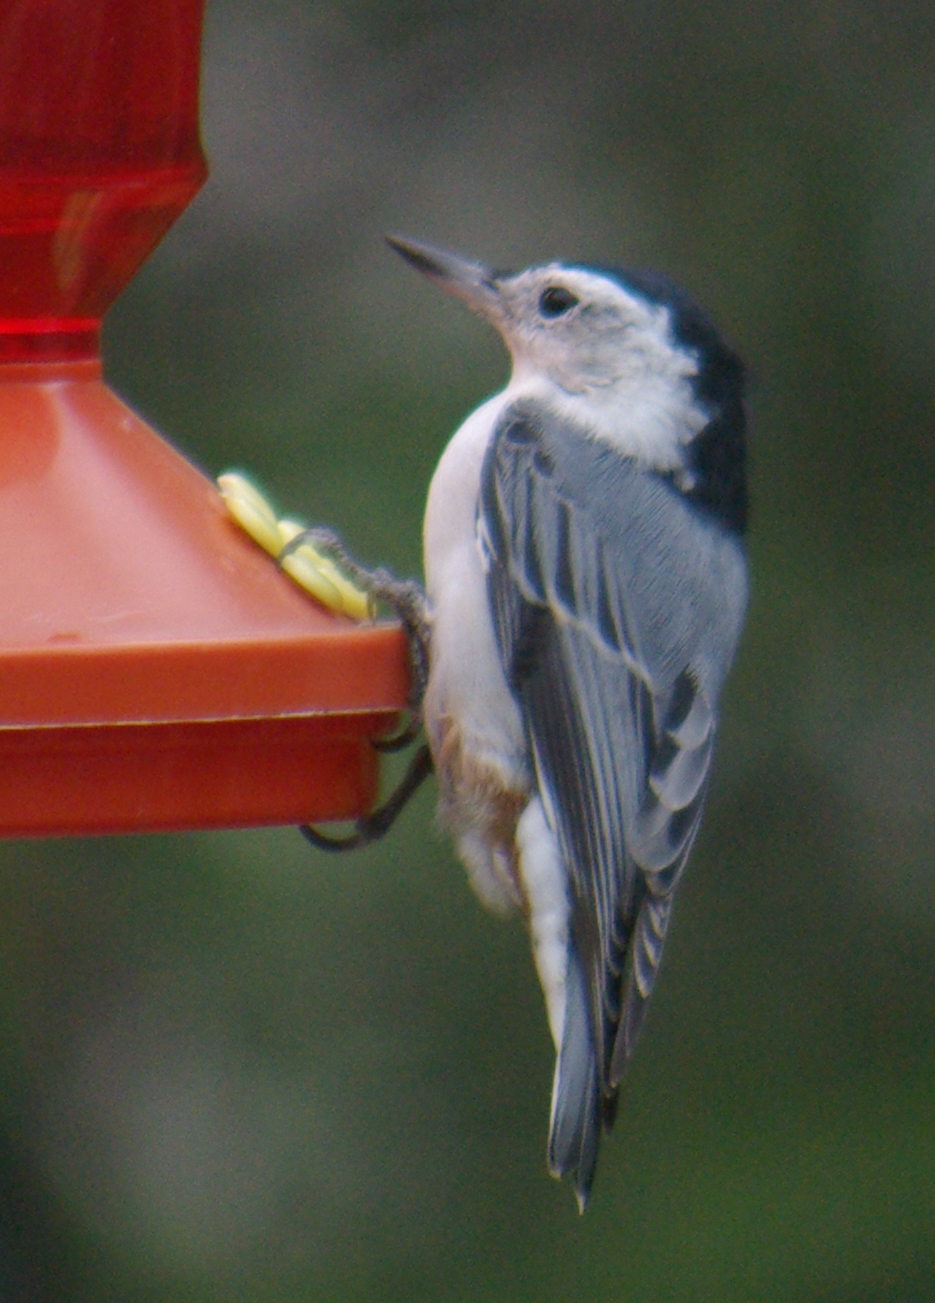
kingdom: Animalia
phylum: Chordata
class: Aves
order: Passeriformes
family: Sittidae
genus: Sitta
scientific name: Sitta carolinensis
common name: White-breasted nuthatch
